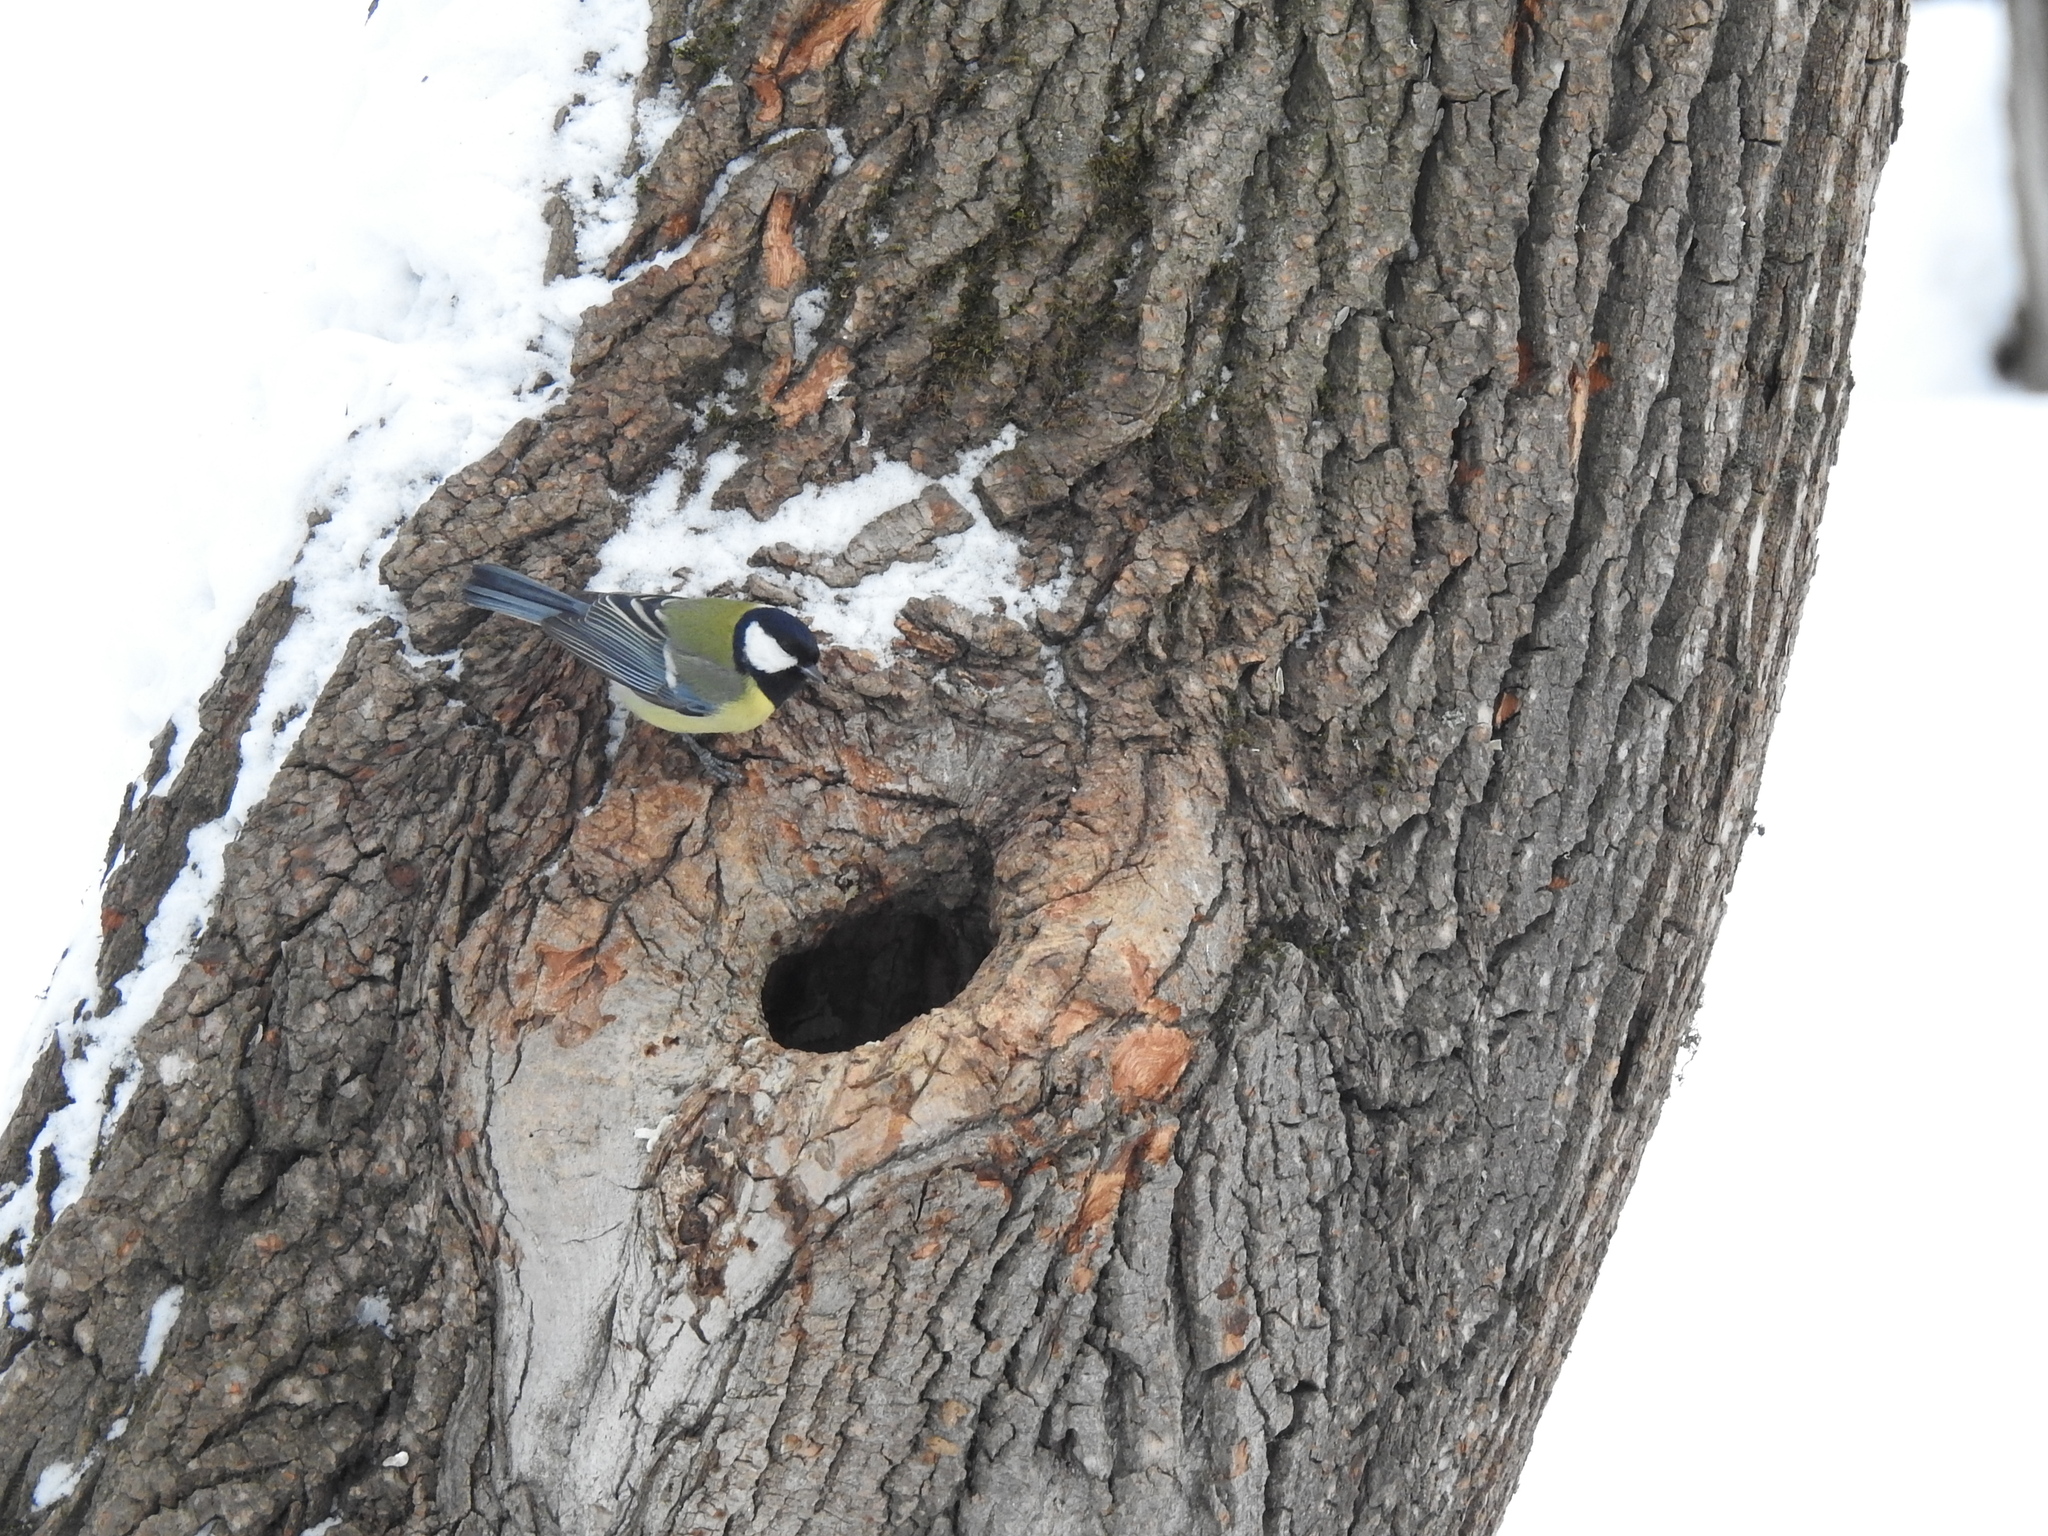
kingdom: Animalia
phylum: Chordata
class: Aves
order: Passeriformes
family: Paridae
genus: Parus
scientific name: Parus major
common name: Great tit
